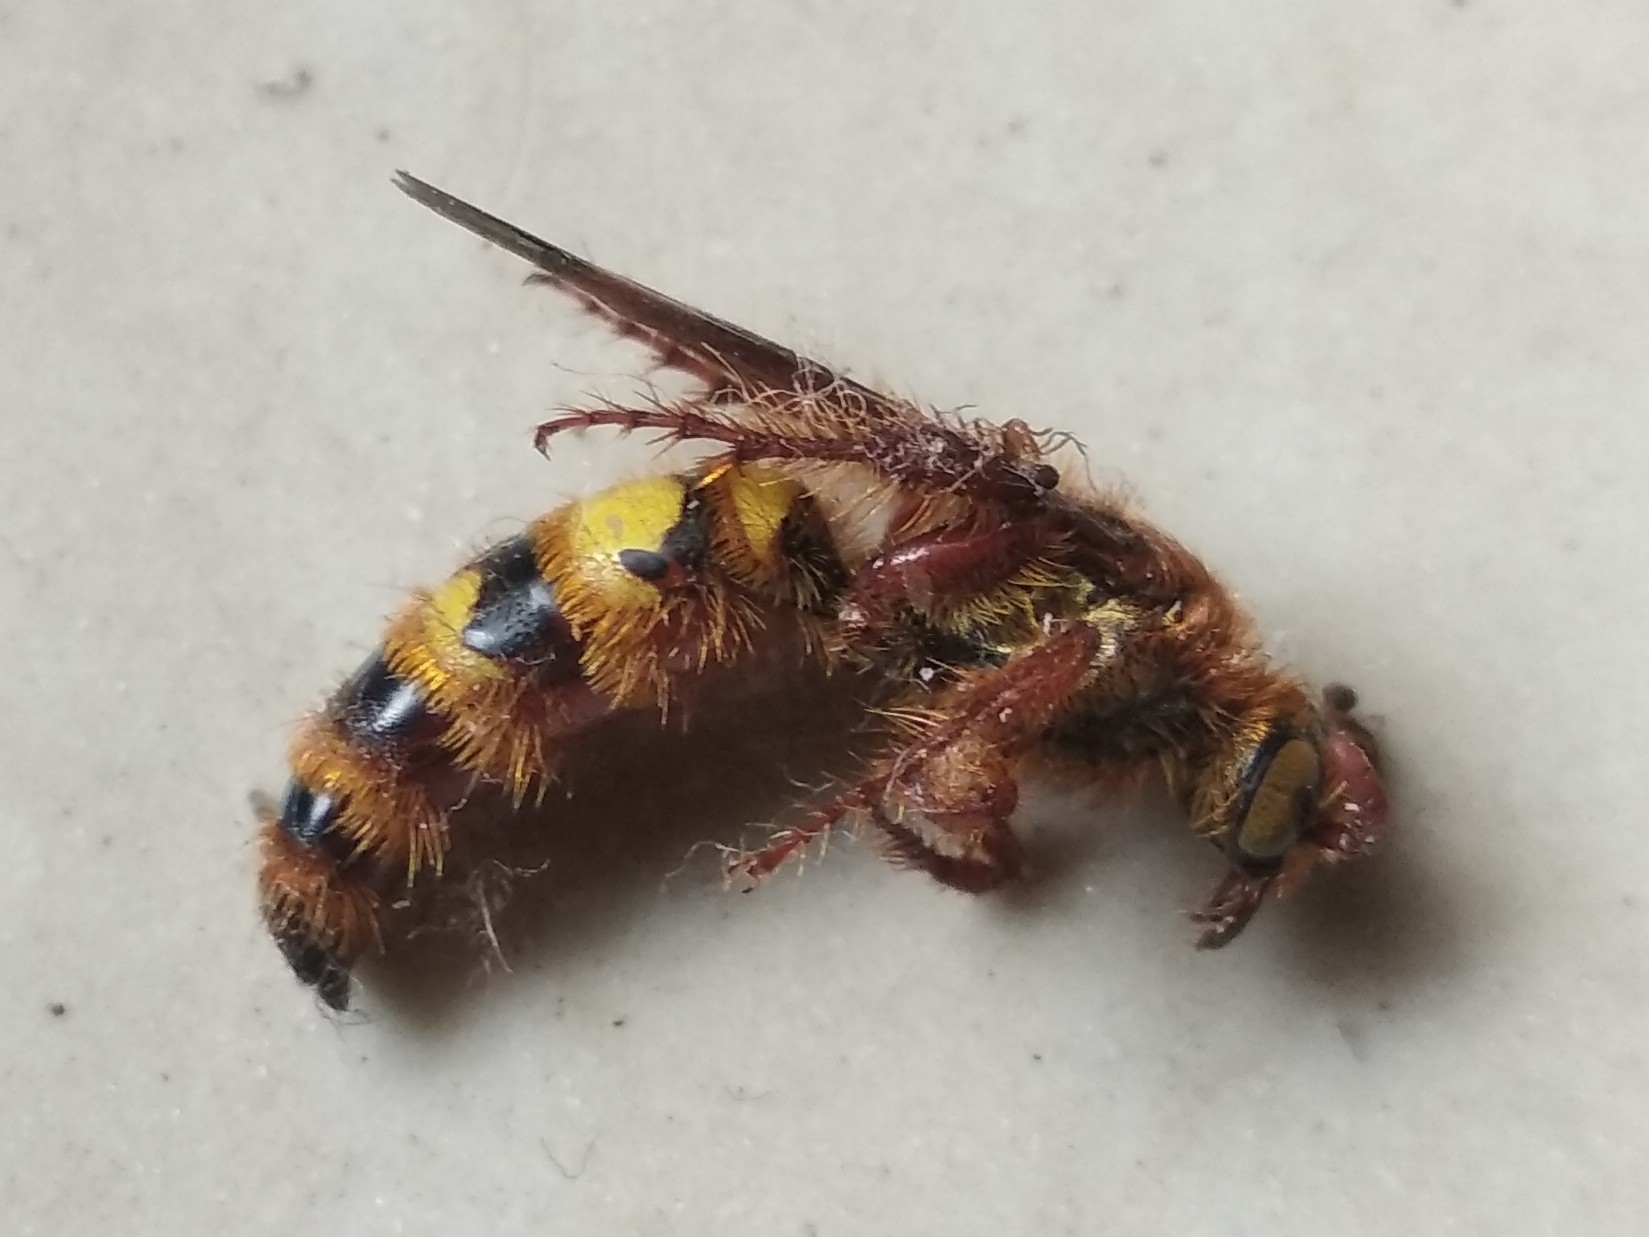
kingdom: Animalia
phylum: Arthropoda
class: Insecta
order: Hymenoptera
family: Scoliidae
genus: Phalerimeris
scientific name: Phalerimeris
